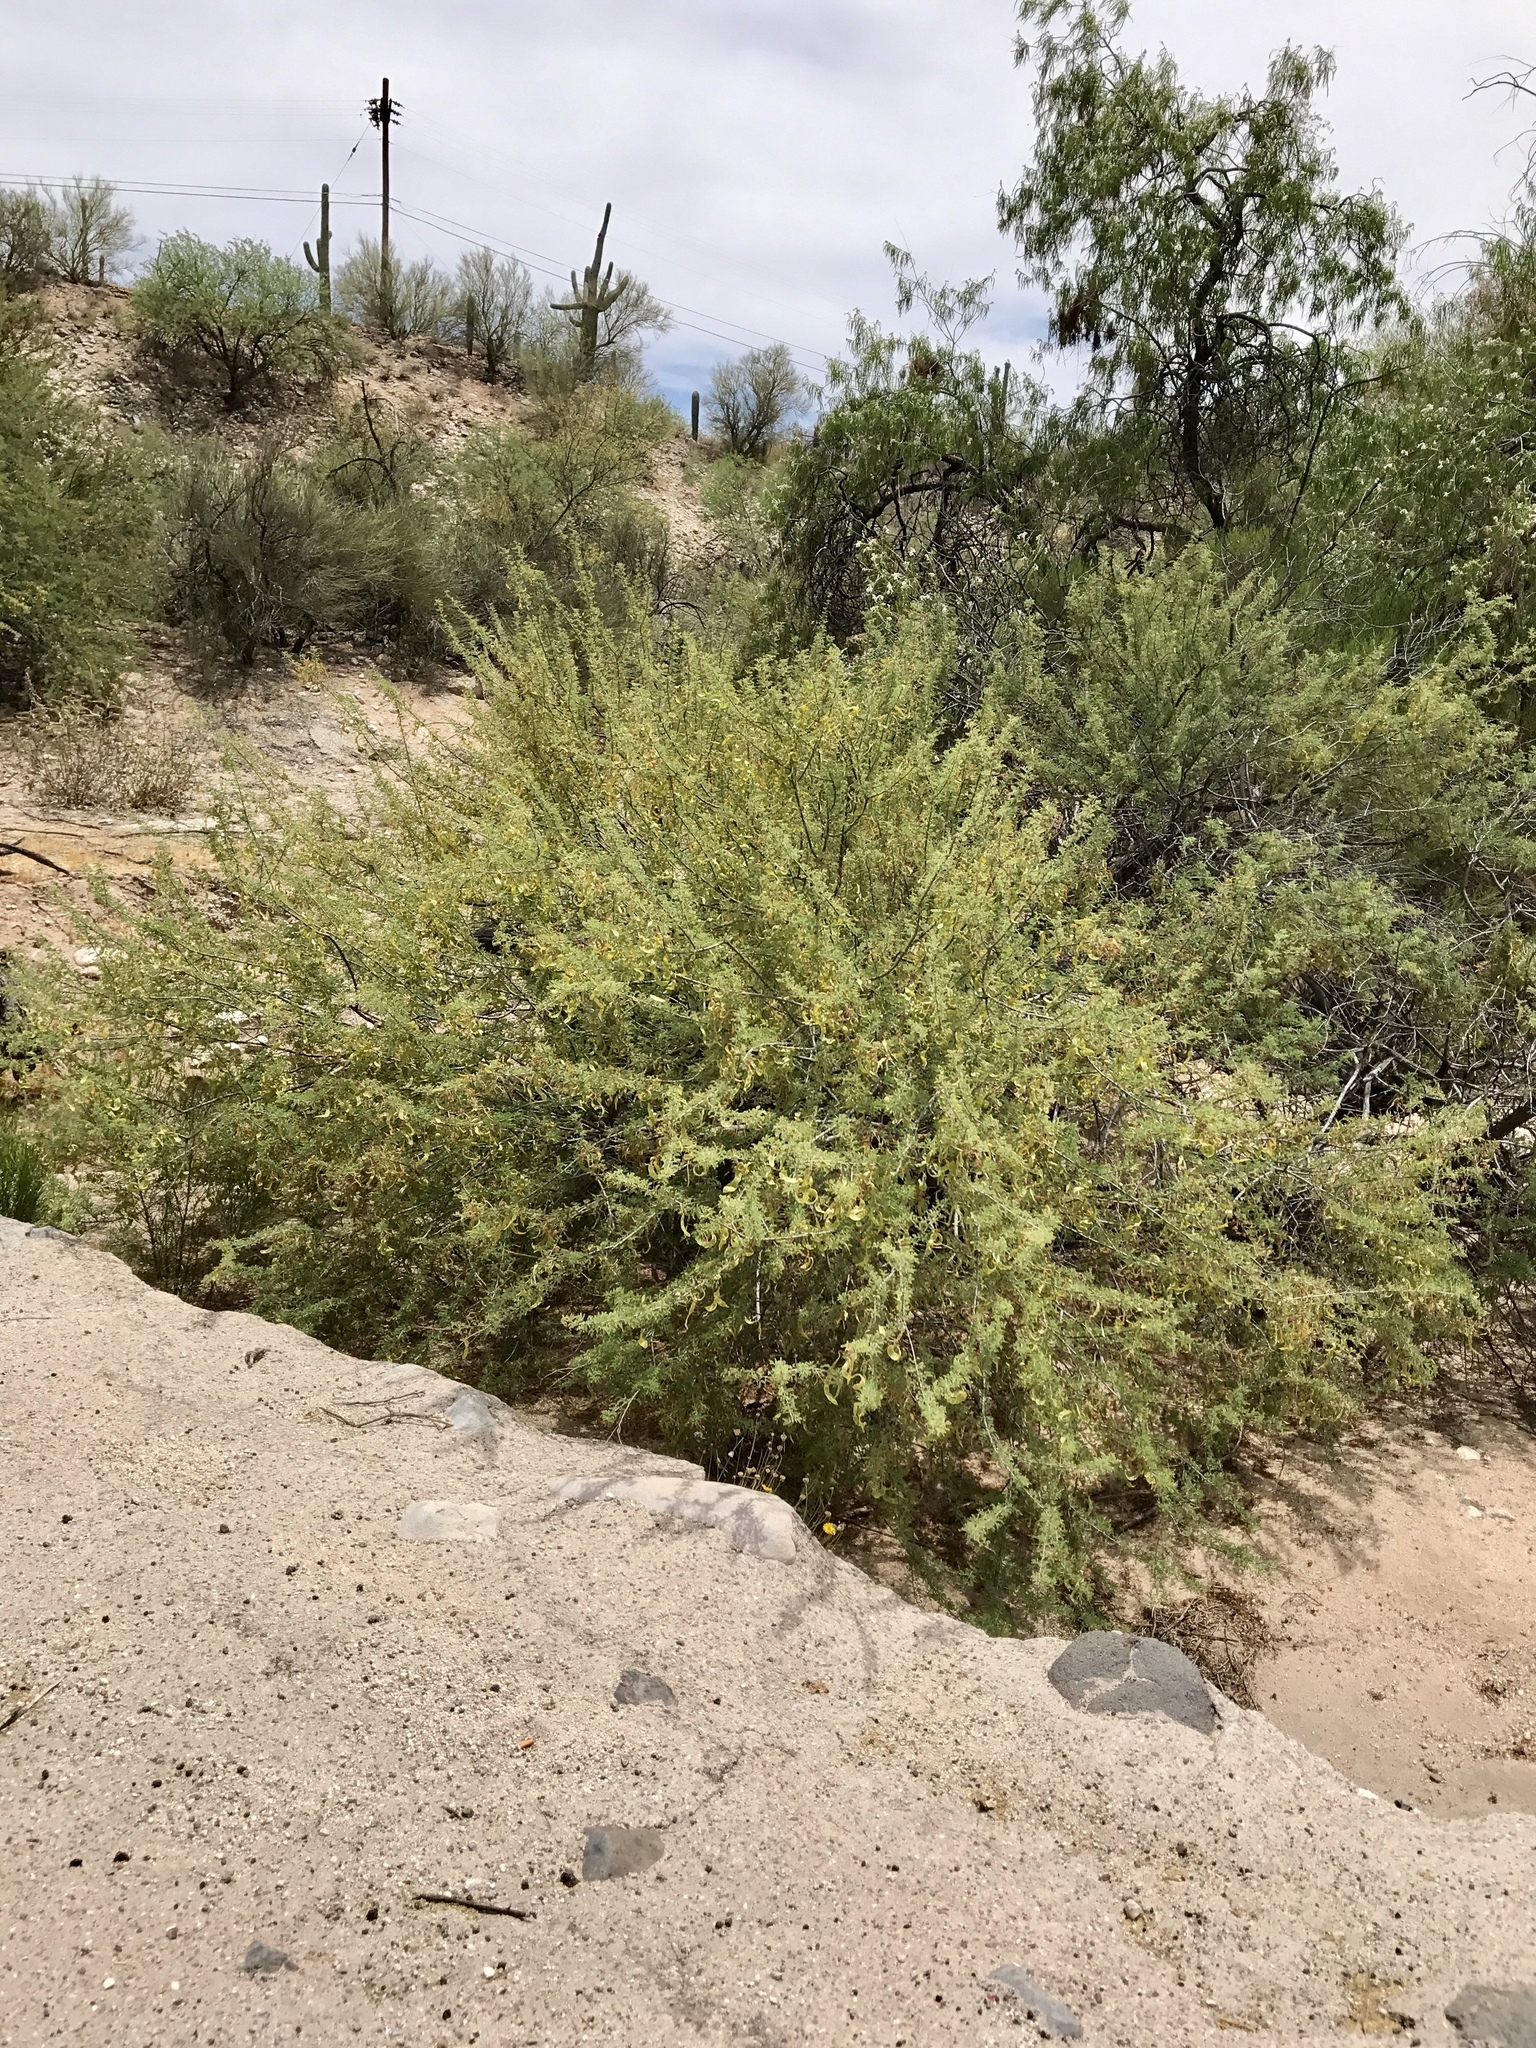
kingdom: Plantae
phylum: Tracheophyta
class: Magnoliopsida
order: Fabales
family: Fabaceae
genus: Senegalia
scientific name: Senegalia greggii
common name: Texas-mimosa
